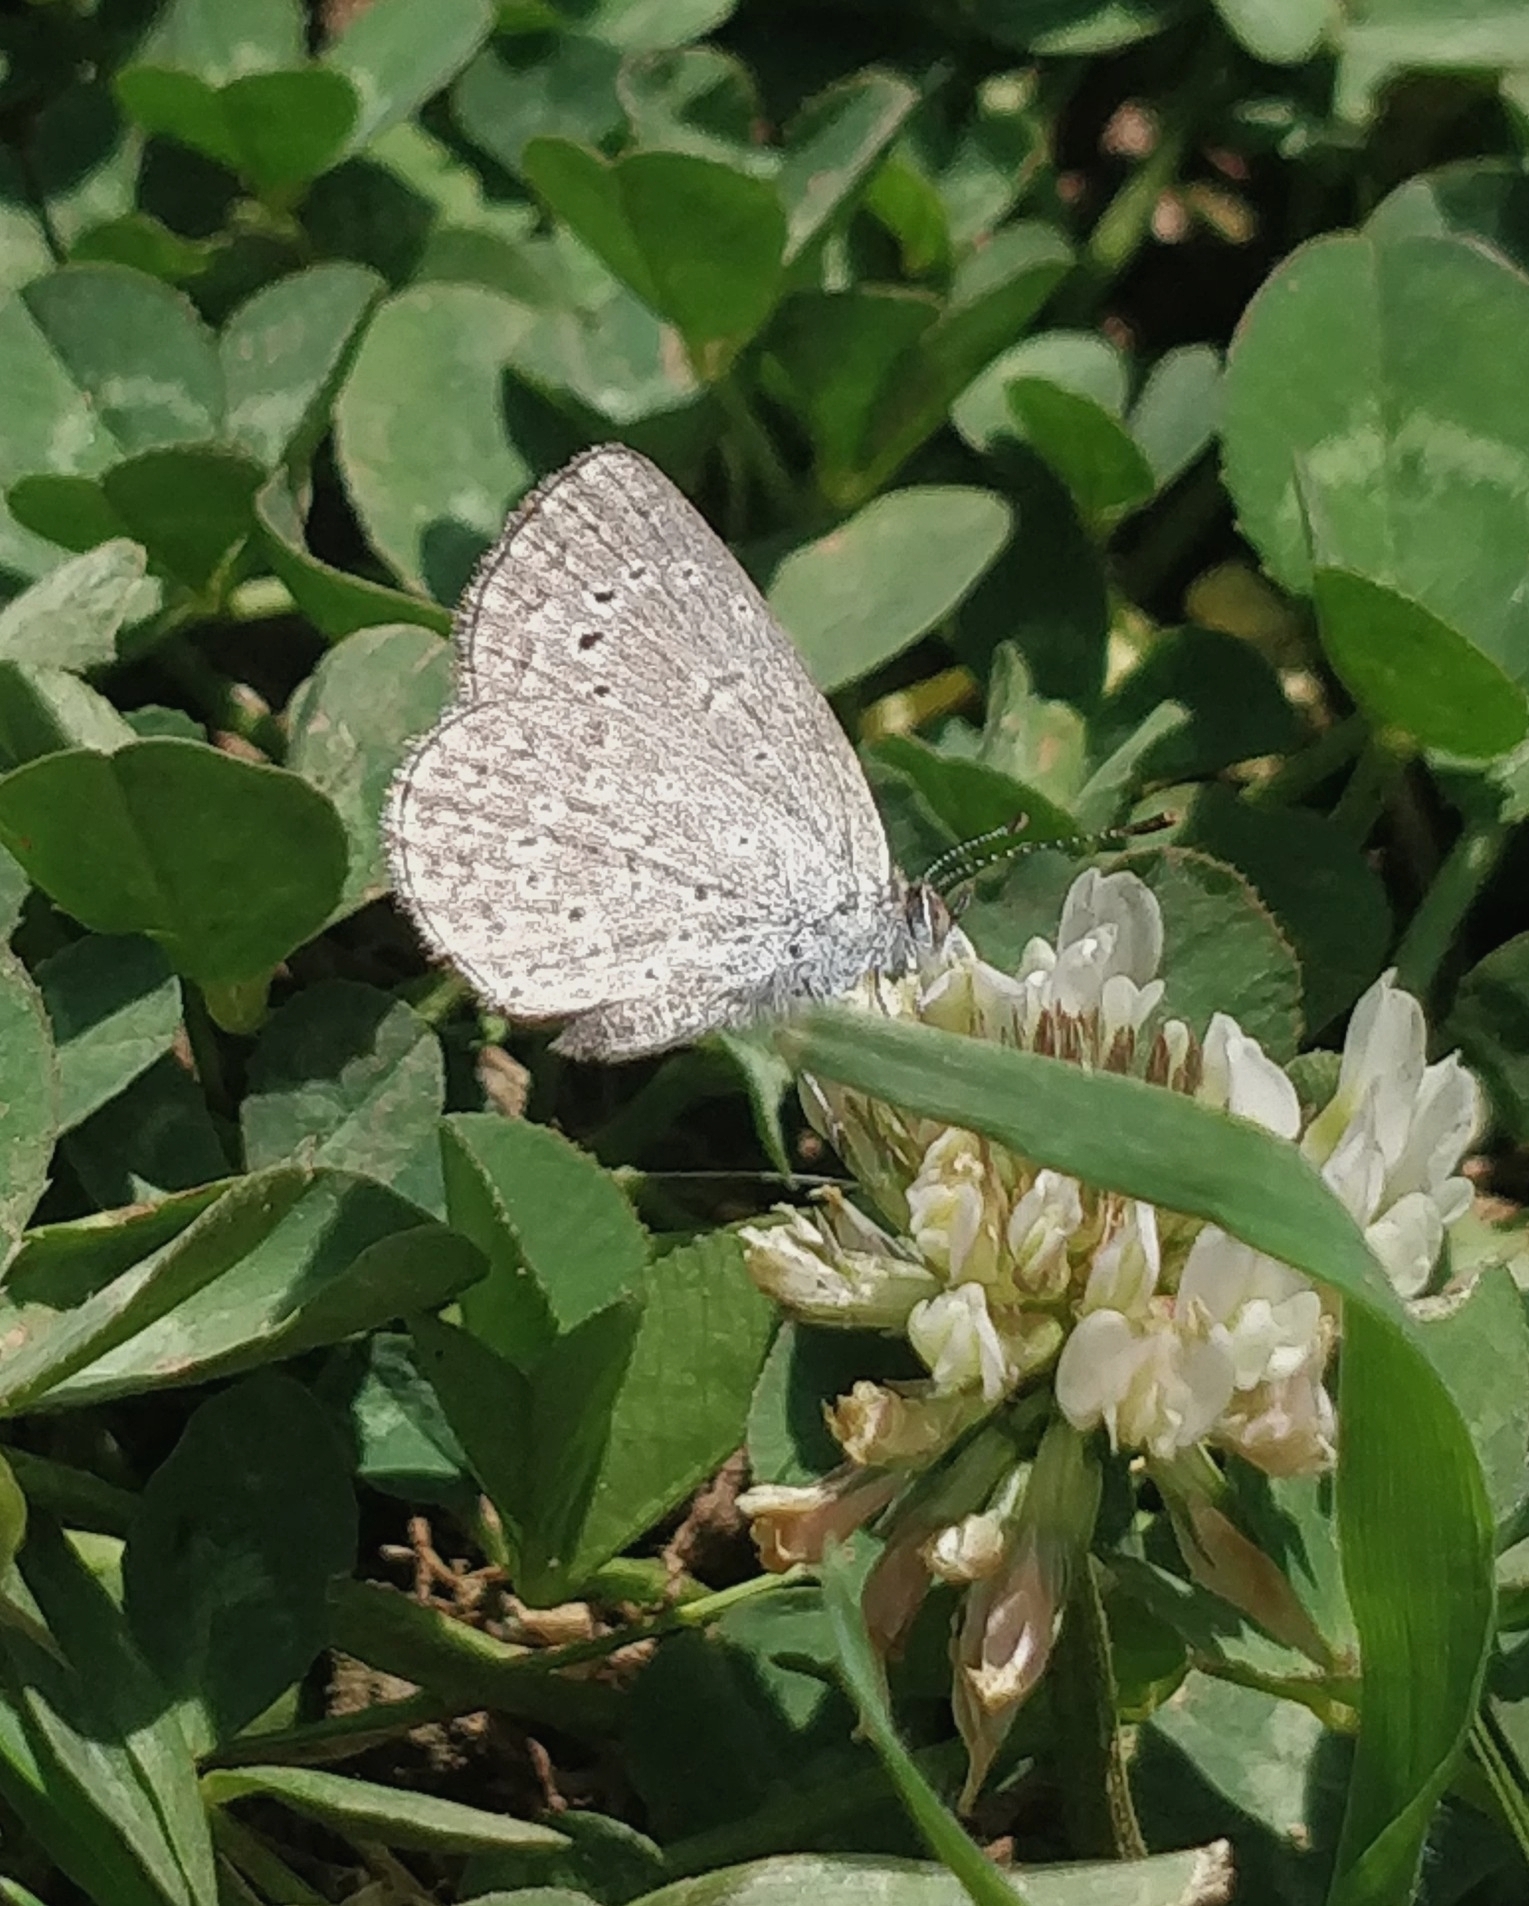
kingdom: Animalia
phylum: Arthropoda
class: Insecta
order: Lepidoptera
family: Lycaenidae
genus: Zizeeria
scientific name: Zizeeria knysna
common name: African grass blue
